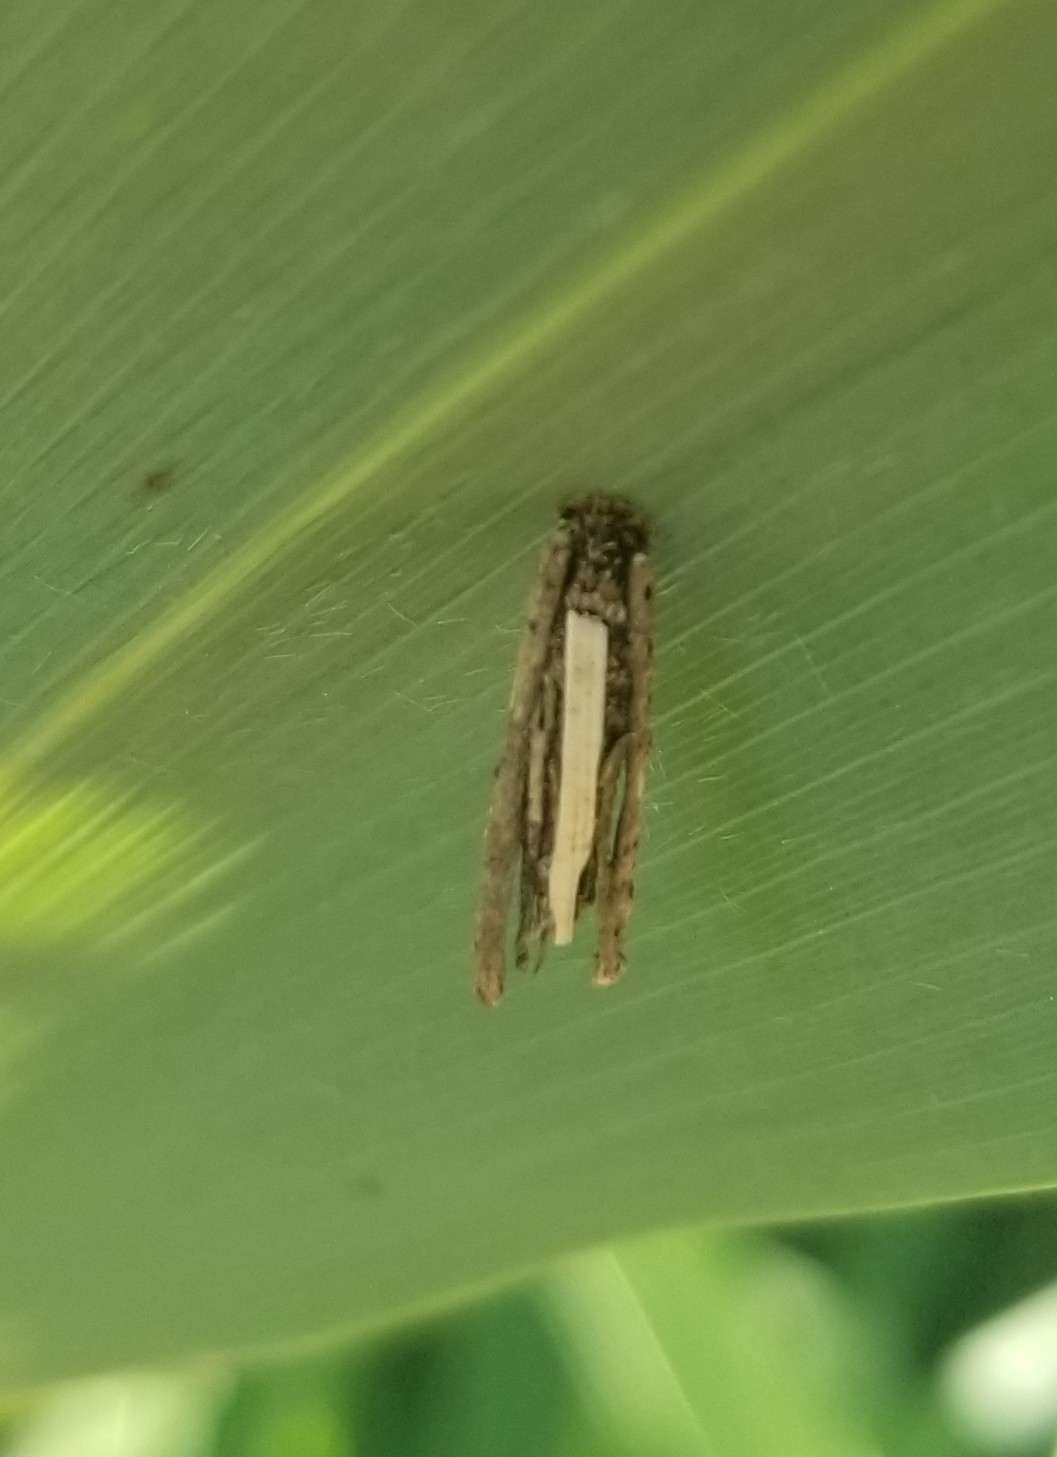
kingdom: Animalia
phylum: Arthropoda
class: Insecta
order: Lepidoptera
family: Psychidae
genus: Psyche
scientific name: Psyche casta
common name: Common sweep
